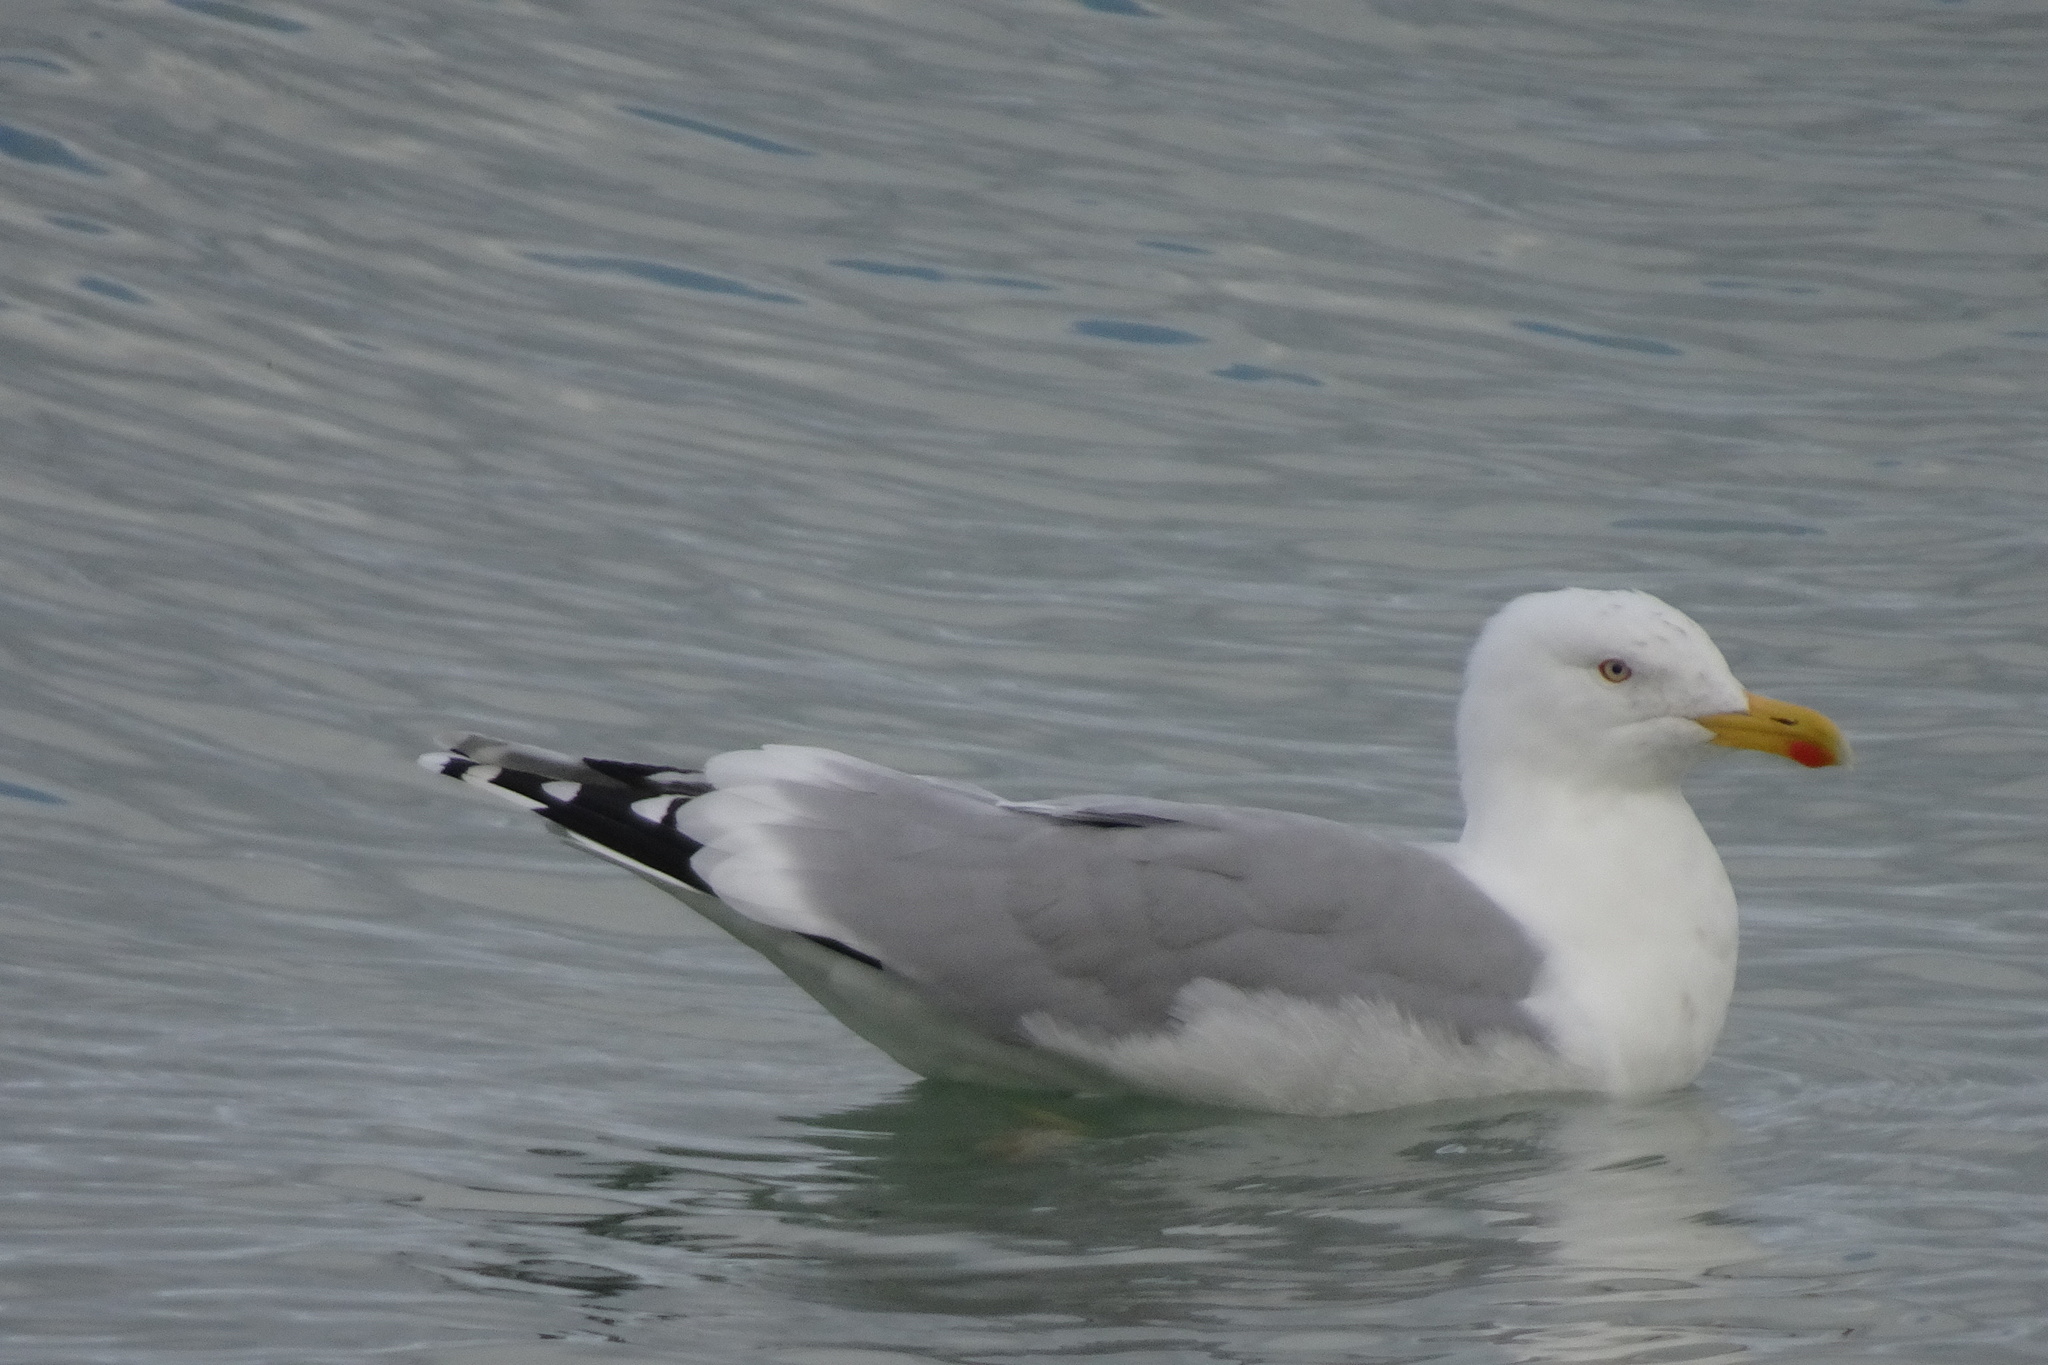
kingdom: Animalia
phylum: Chordata
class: Aves
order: Charadriiformes
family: Laridae
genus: Larus
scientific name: Larus argentatus
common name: Herring gull
